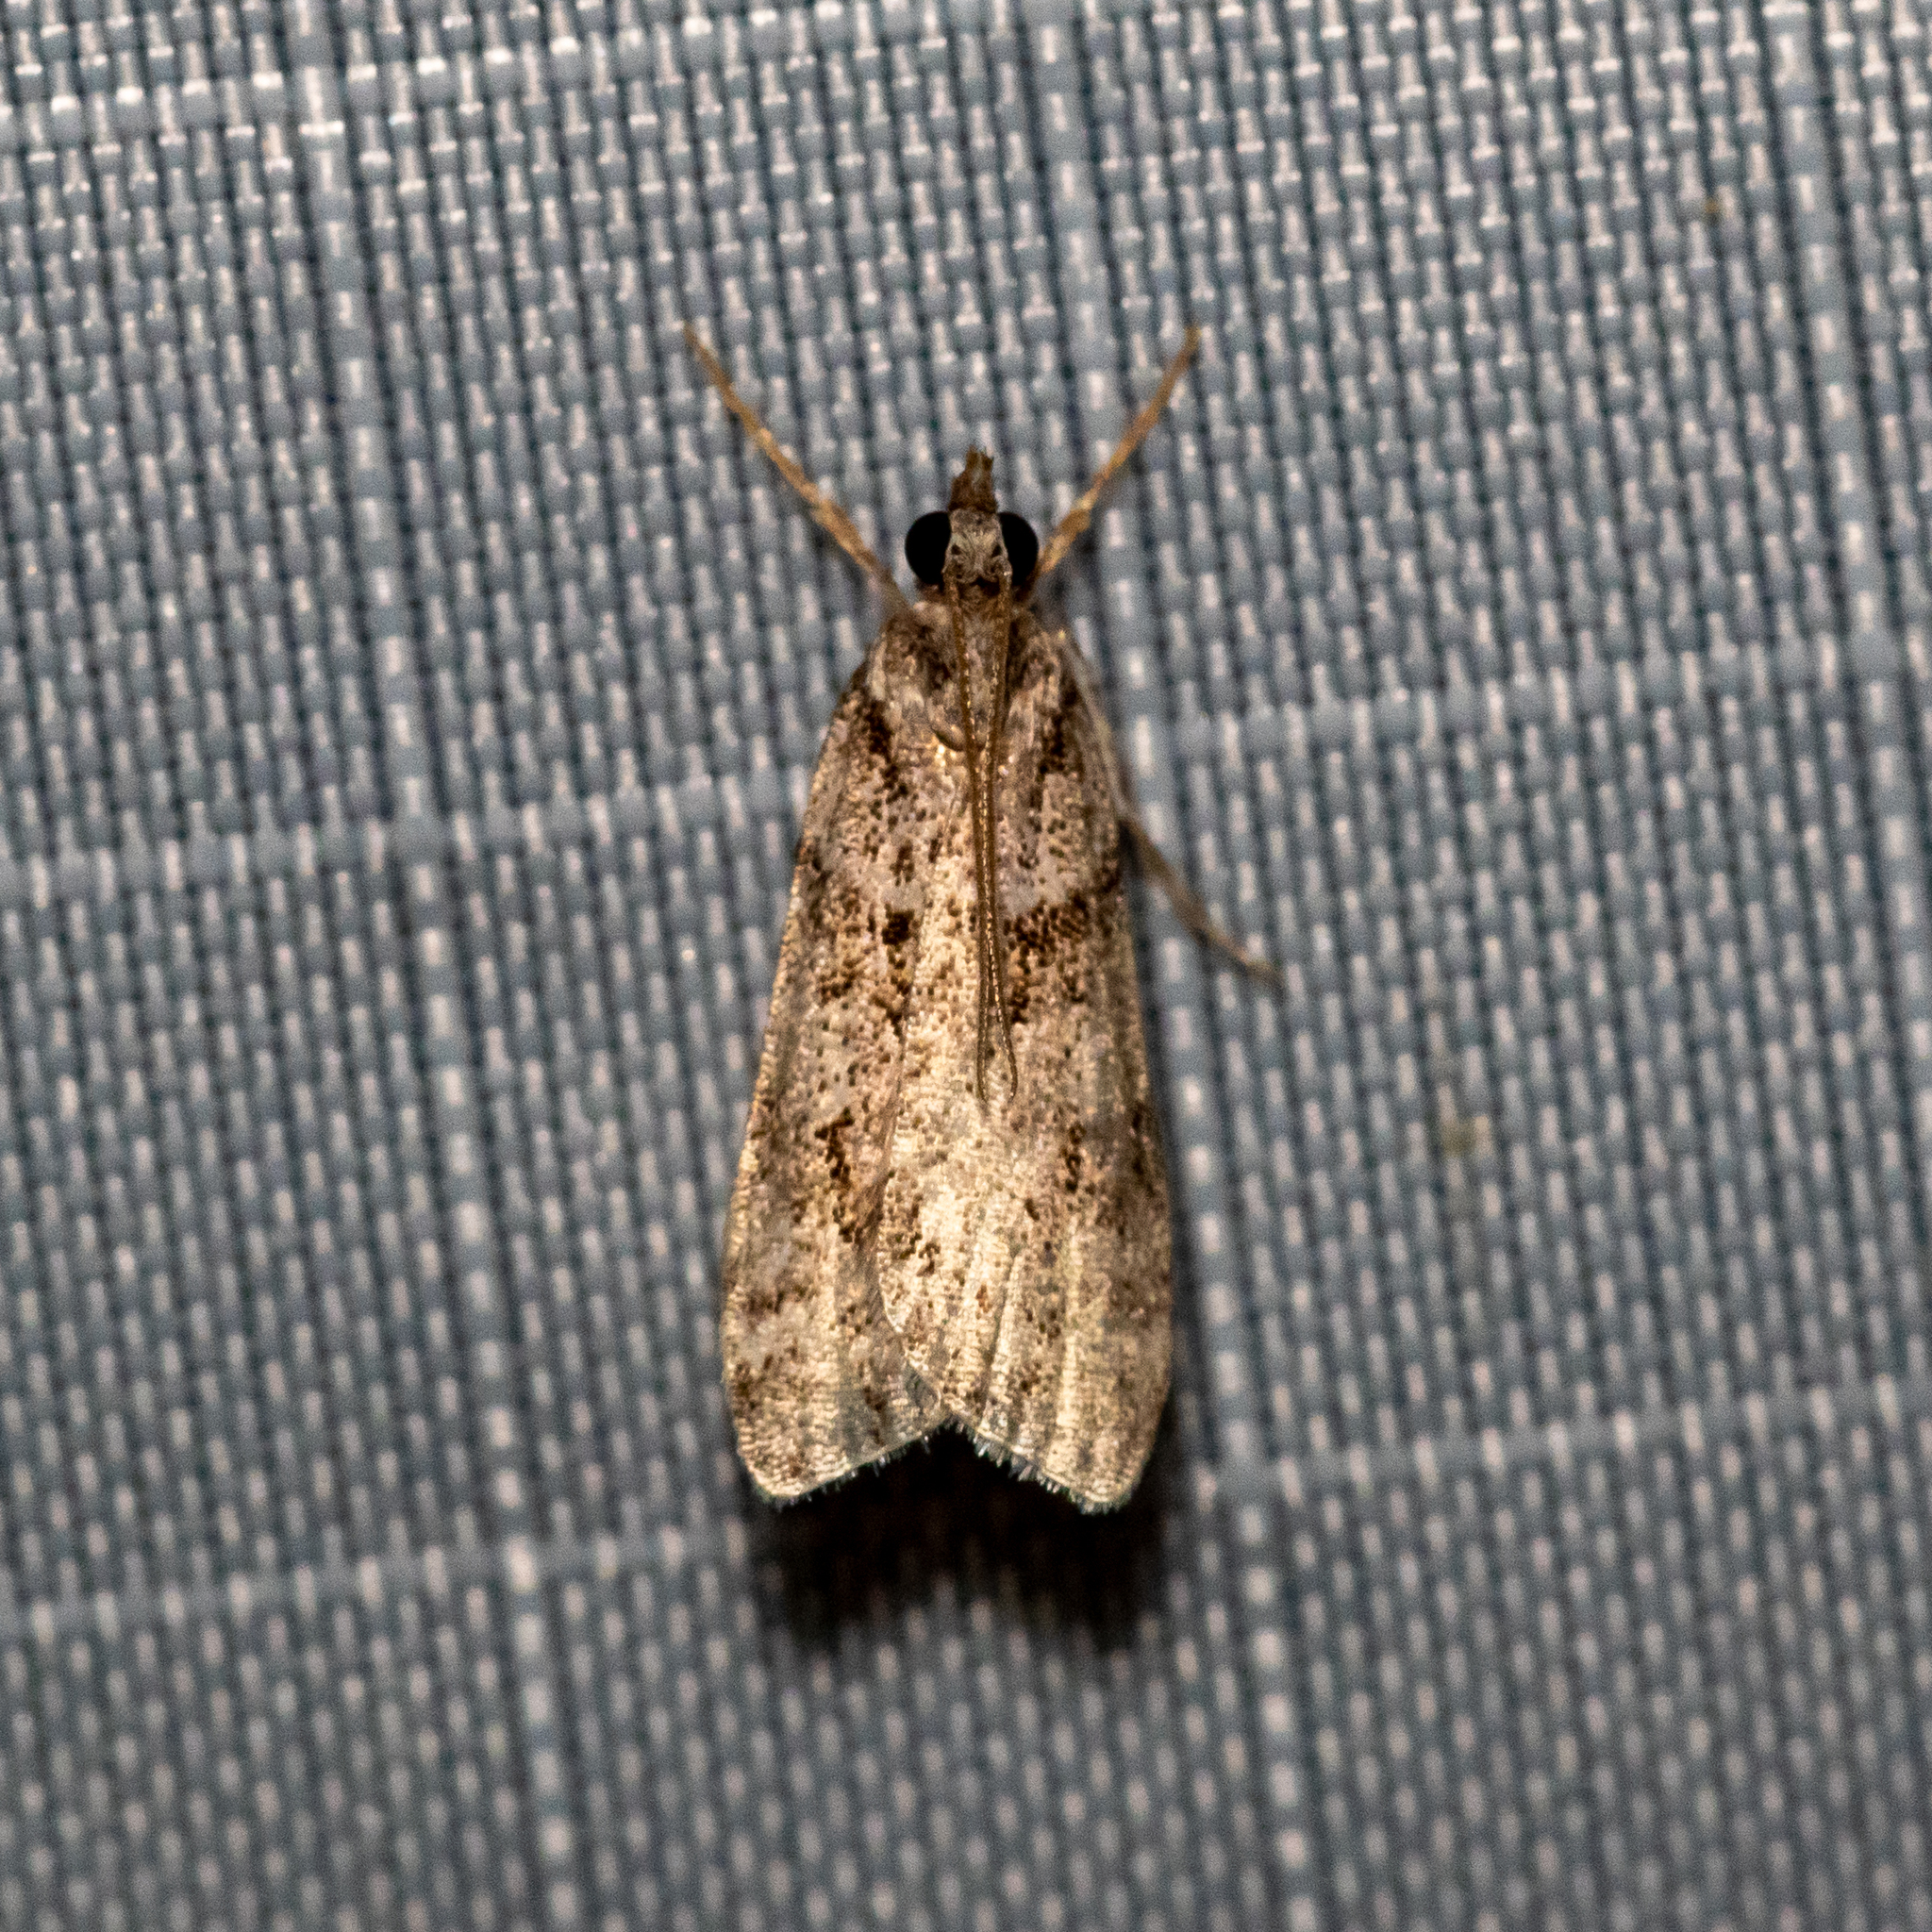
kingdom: Animalia
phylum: Arthropoda
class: Insecta
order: Lepidoptera
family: Crambidae
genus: Scoparia
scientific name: Scoparia biplagialis
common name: Double-striped scoparia moth
